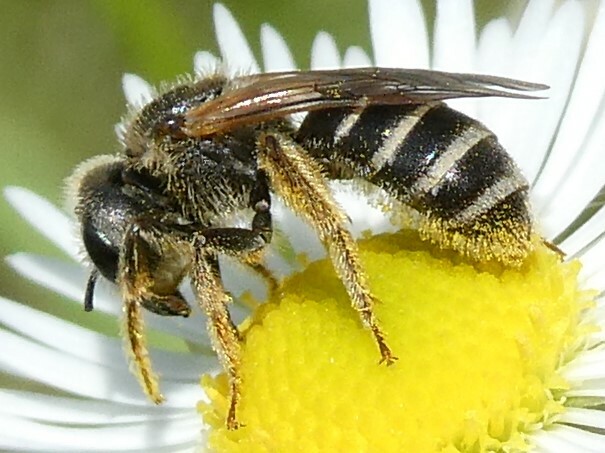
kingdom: Animalia
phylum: Arthropoda
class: Insecta
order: Hymenoptera
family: Halictidae
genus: Halictus
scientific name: Halictus ligatus
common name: Ligated furrow bee
